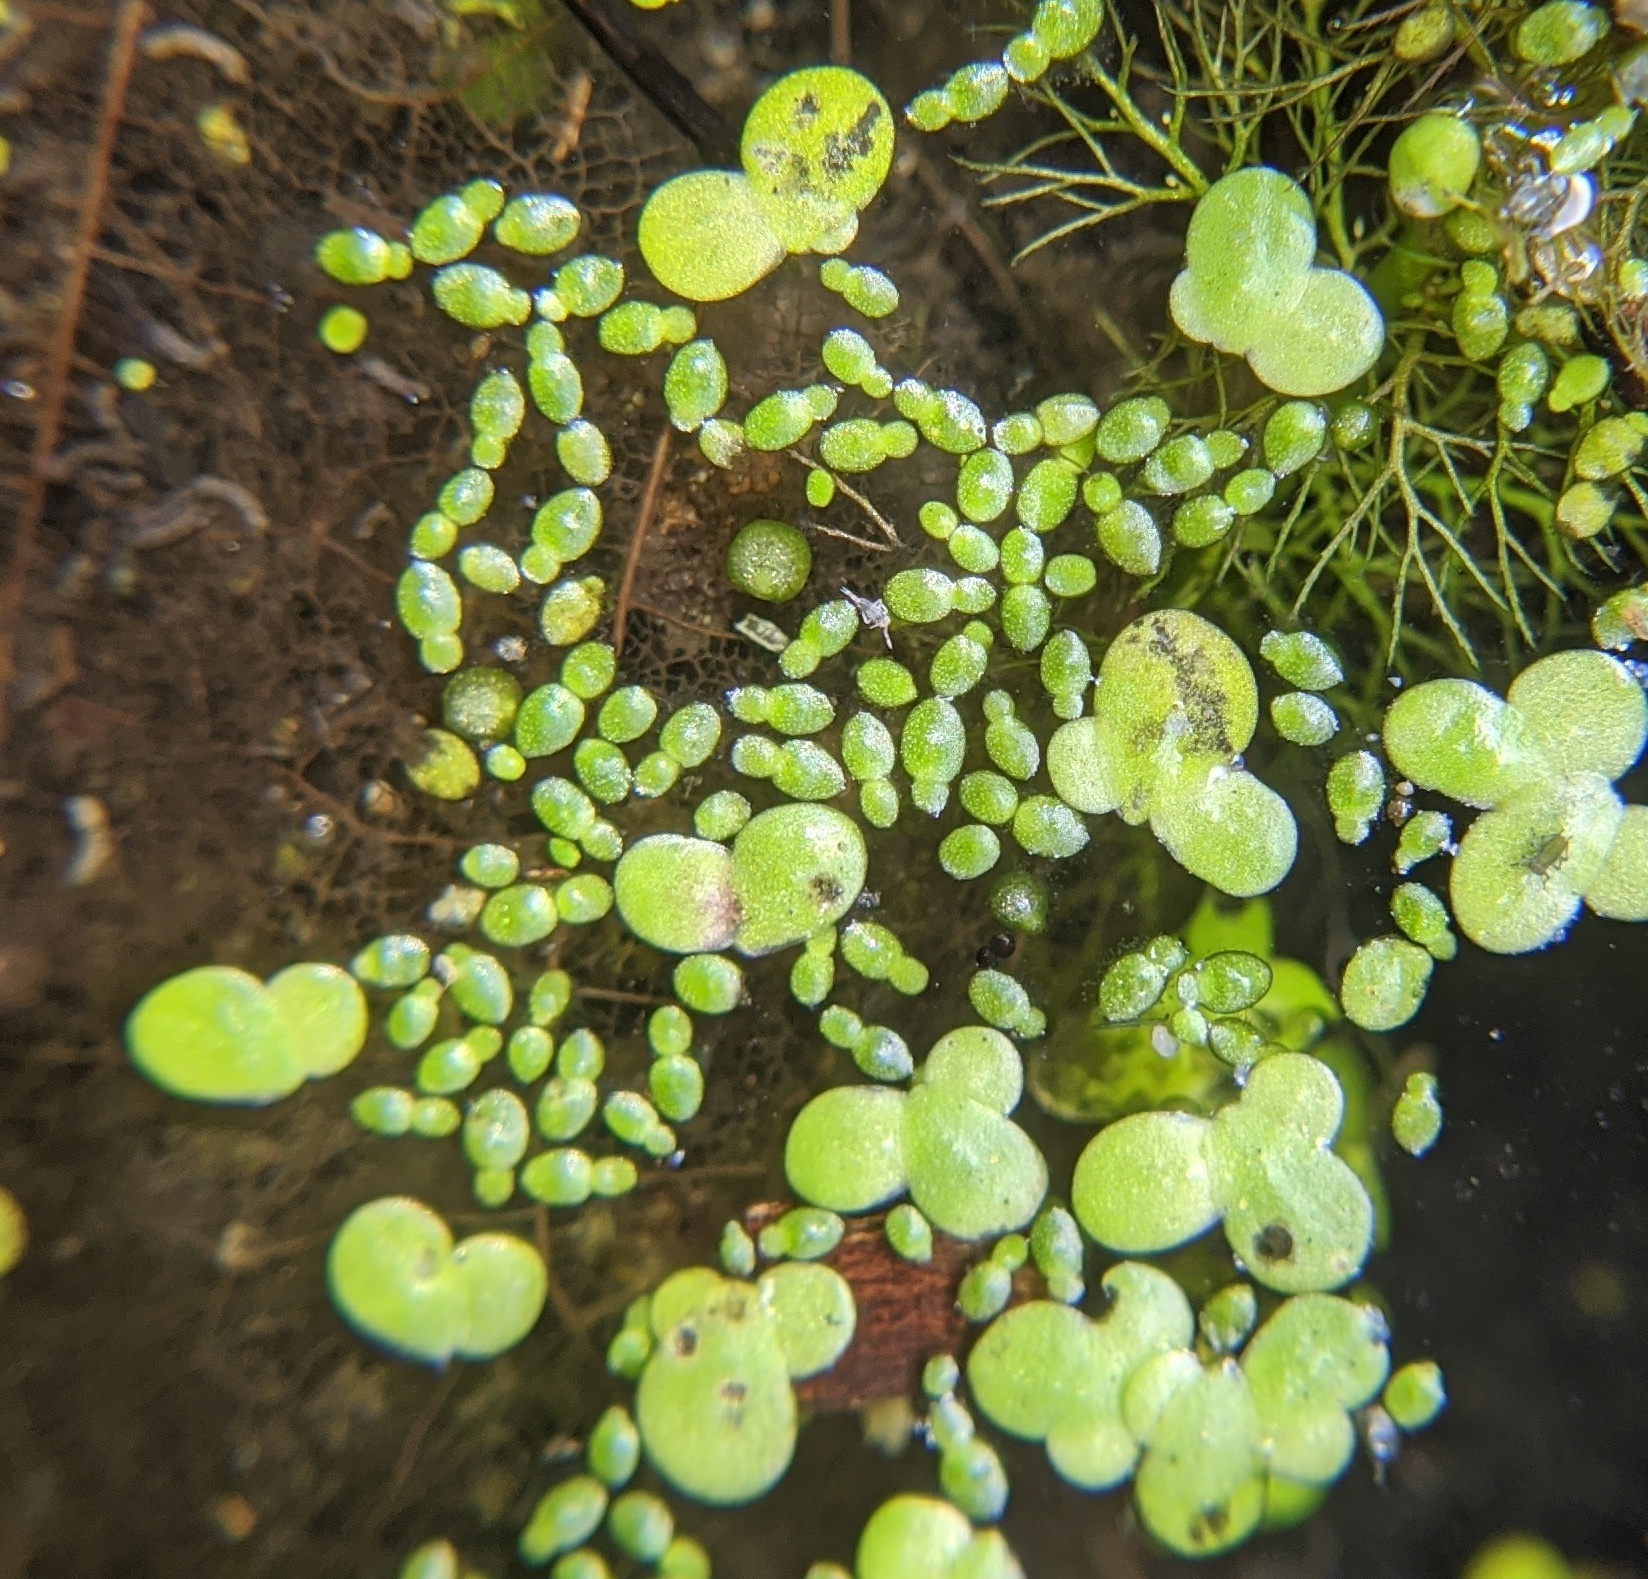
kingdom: Plantae
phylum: Tracheophyta
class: Liliopsida
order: Alismatales
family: Araceae
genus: Lemna
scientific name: Lemna minor
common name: Common duckweed
